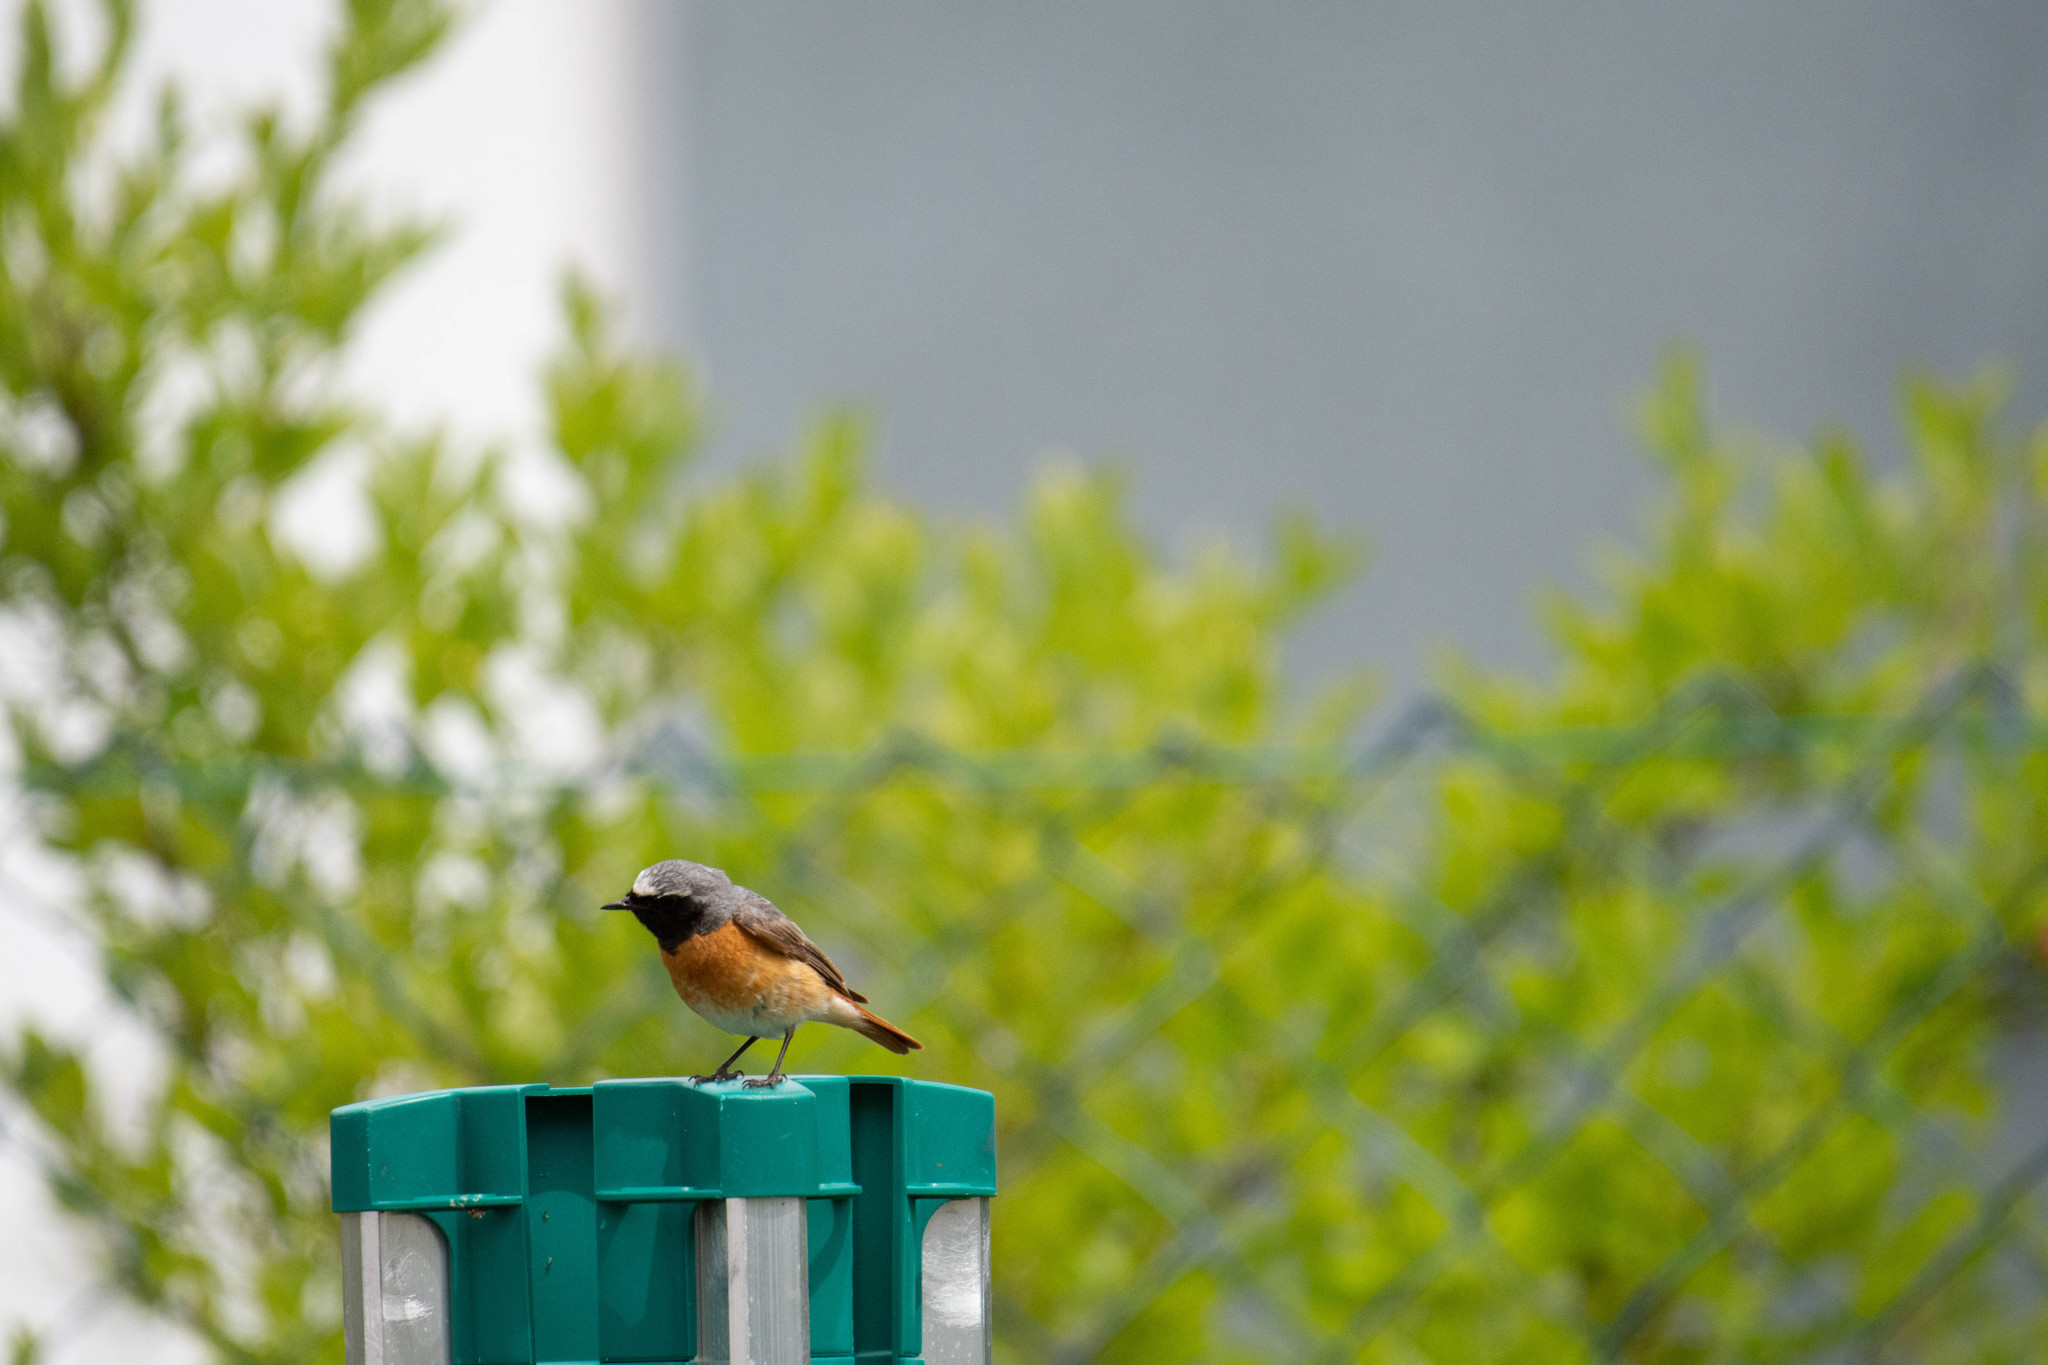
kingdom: Animalia
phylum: Chordata
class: Aves
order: Passeriformes
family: Muscicapidae
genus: Phoenicurus
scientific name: Phoenicurus phoenicurus
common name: Common redstart
